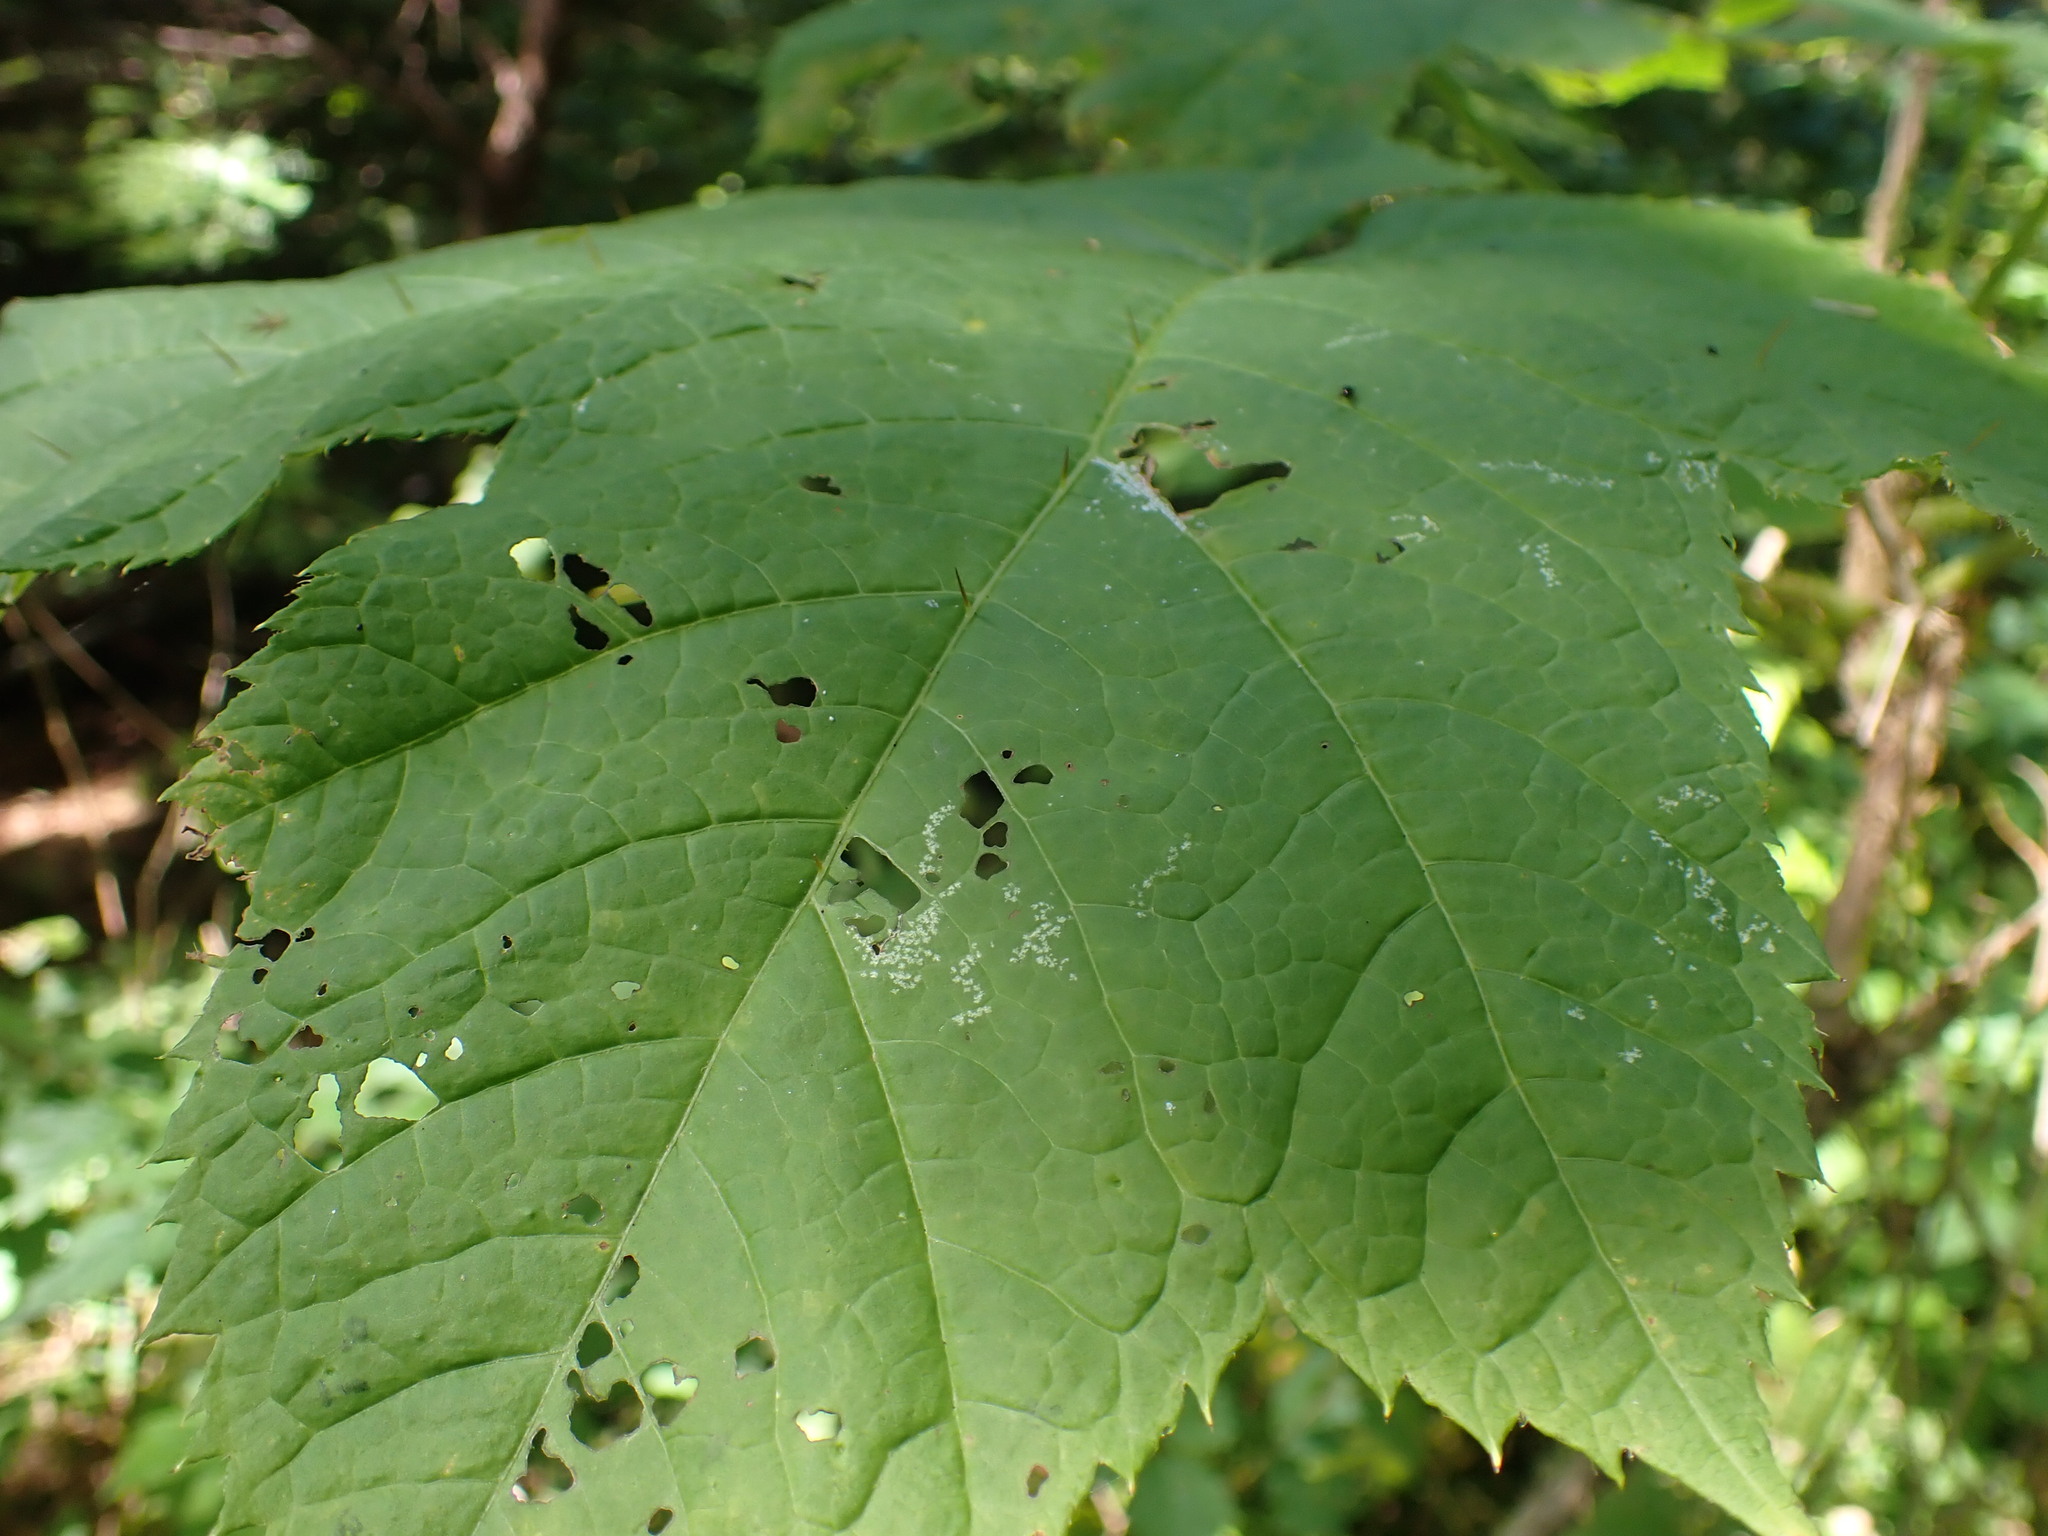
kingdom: Plantae
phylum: Tracheophyta
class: Magnoliopsida
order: Apiales
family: Araliaceae
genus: Oplopanax
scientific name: Oplopanax horridus
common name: Devil's walking-stick
